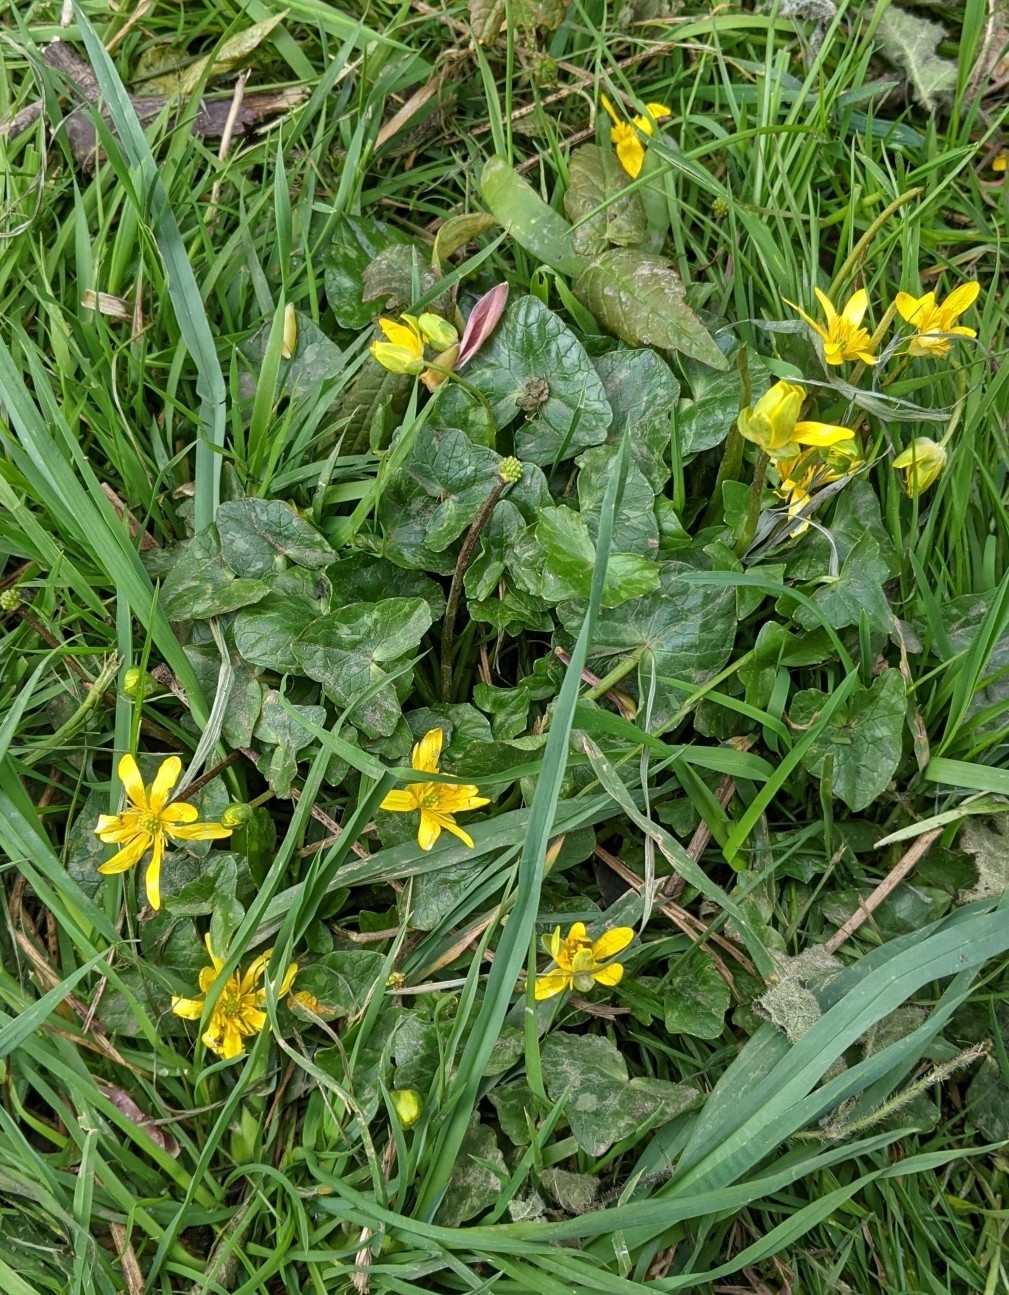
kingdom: Plantae
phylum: Tracheophyta
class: Magnoliopsida
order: Ranunculales
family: Ranunculaceae
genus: Ficaria
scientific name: Ficaria verna
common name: Lesser celandine
